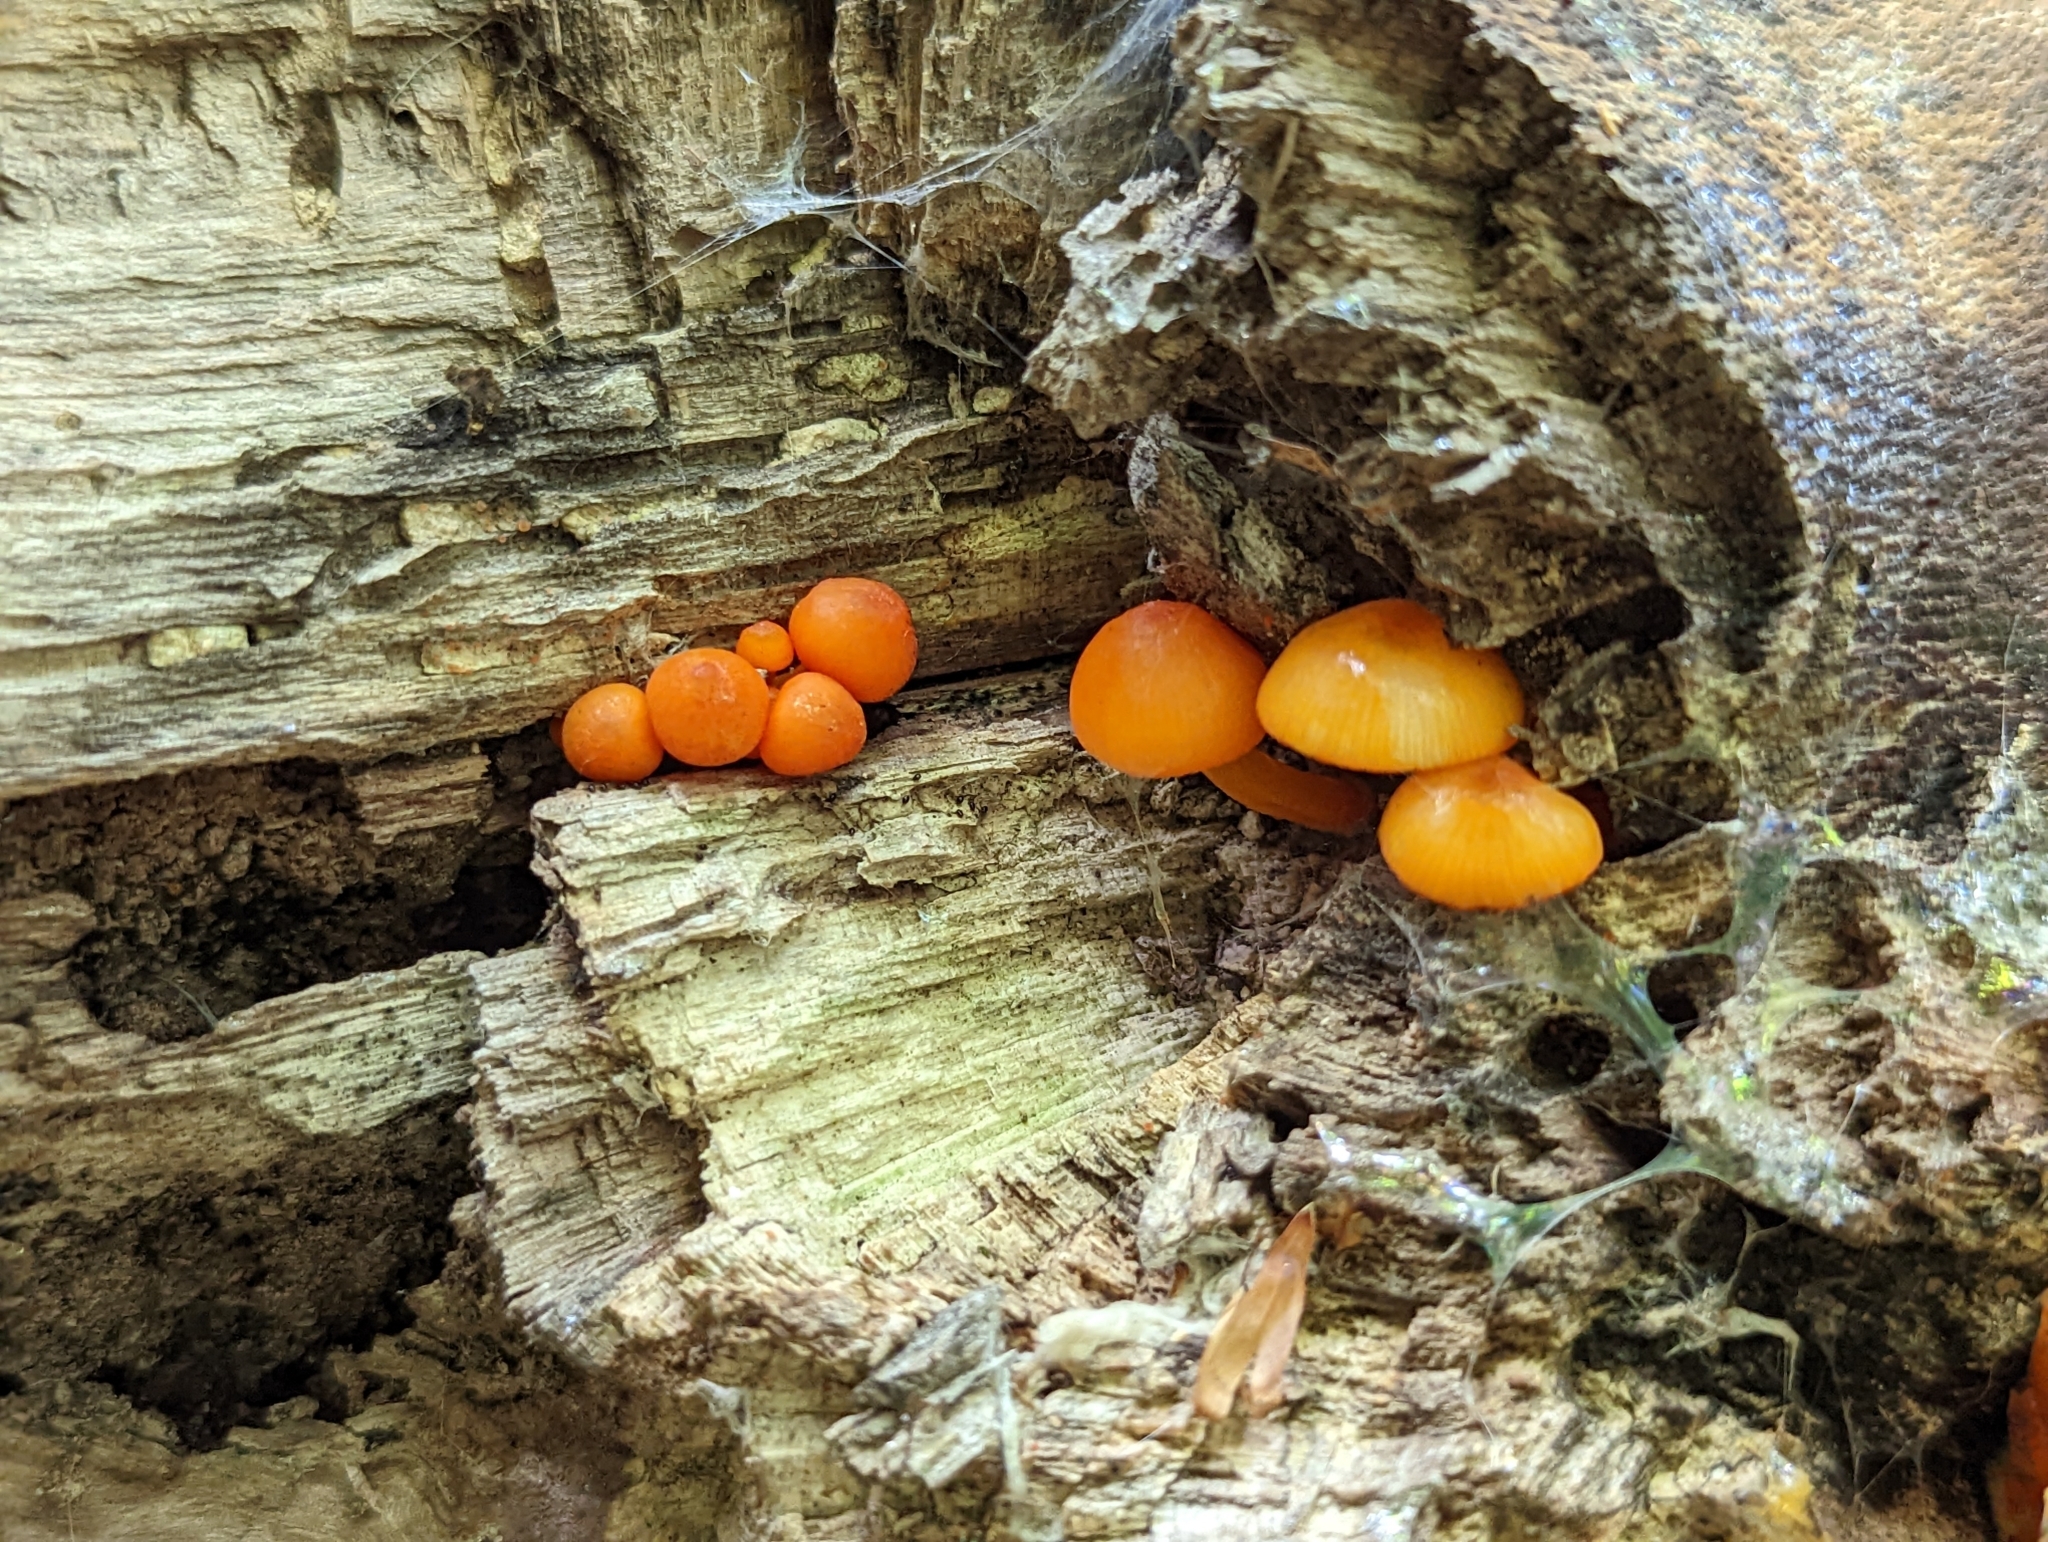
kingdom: Fungi
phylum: Basidiomycota
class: Agaricomycetes
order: Agaricales
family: Mycenaceae
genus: Mycena
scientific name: Mycena leaiana
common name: Orange mycena
